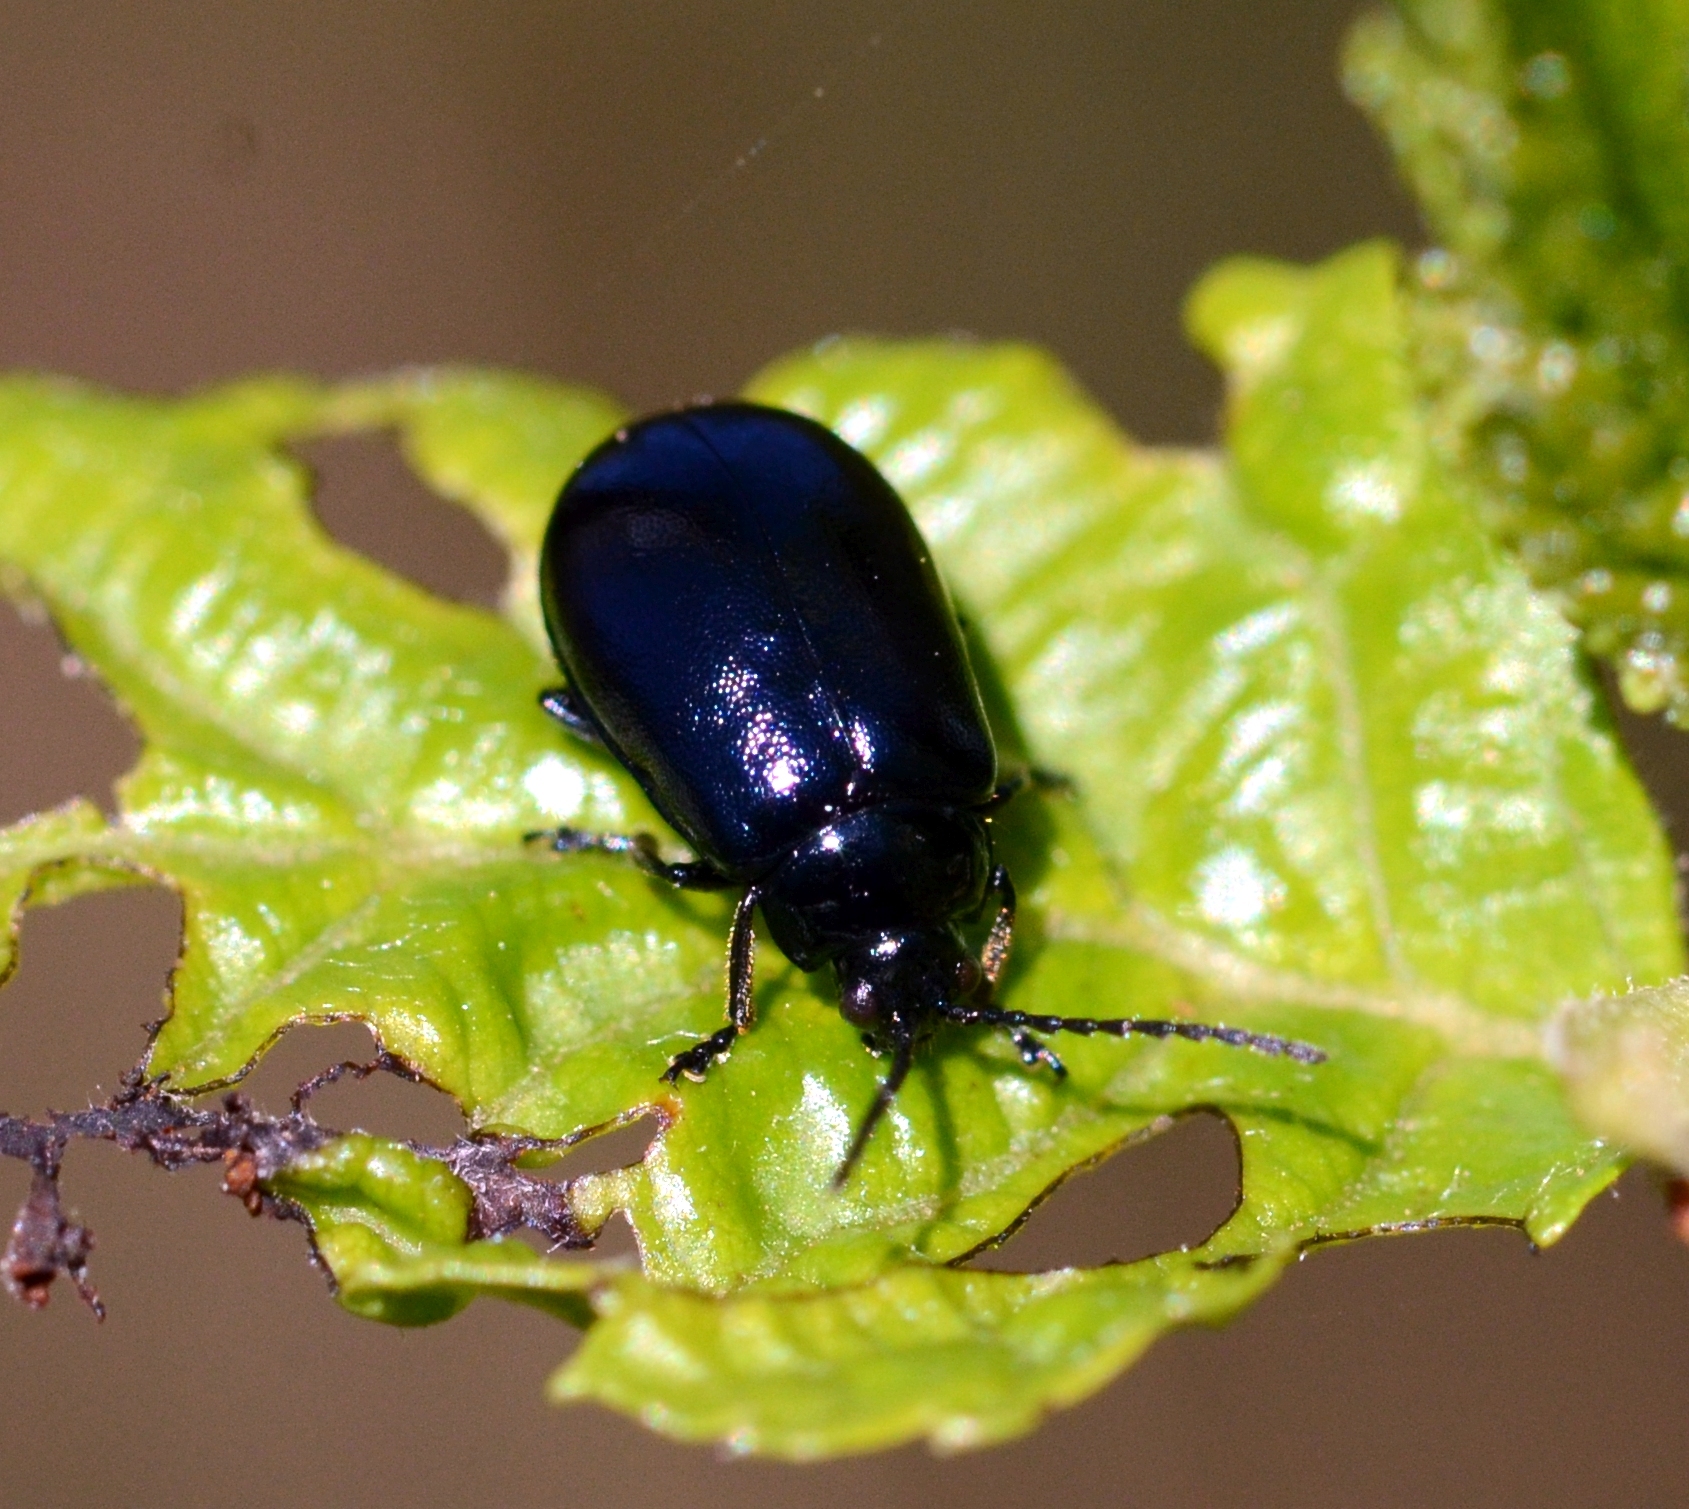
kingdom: Animalia
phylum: Arthropoda
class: Insecta
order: Coleoptera
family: Chrysomelidae
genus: Agelastica
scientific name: Agelastica alni
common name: Alder leaf beetle
